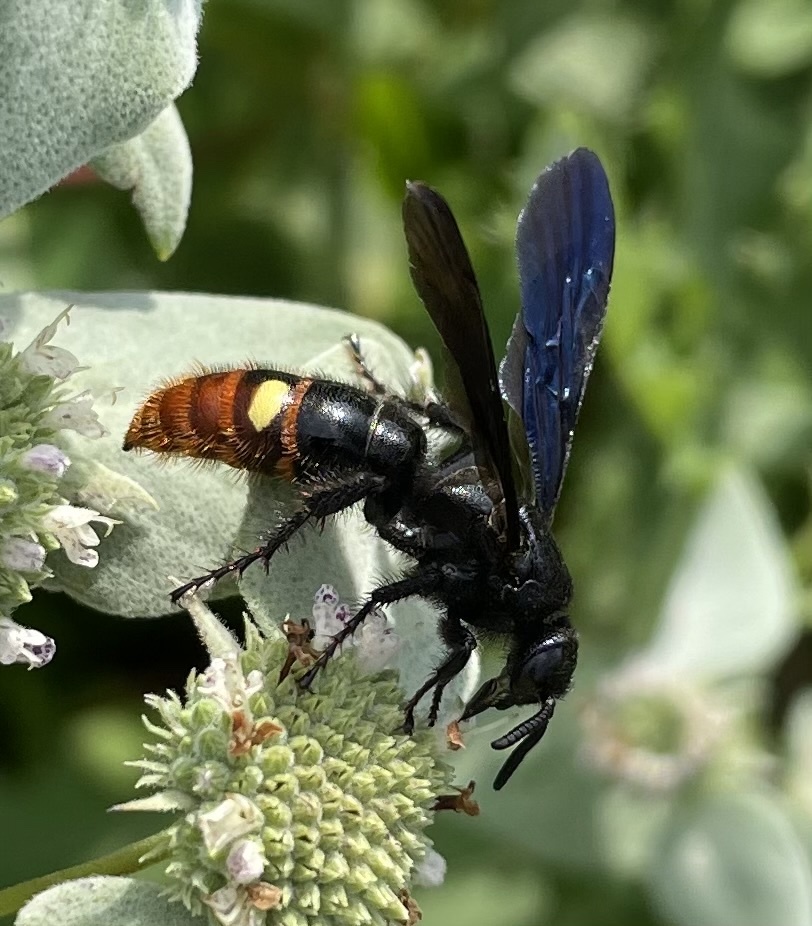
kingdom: Animalia
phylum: Arthropoda
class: Insecta
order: Hymenoptera
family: Scoliidae
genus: Scolia
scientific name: Scolia dubia
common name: Blue-winged scoliid wasp
